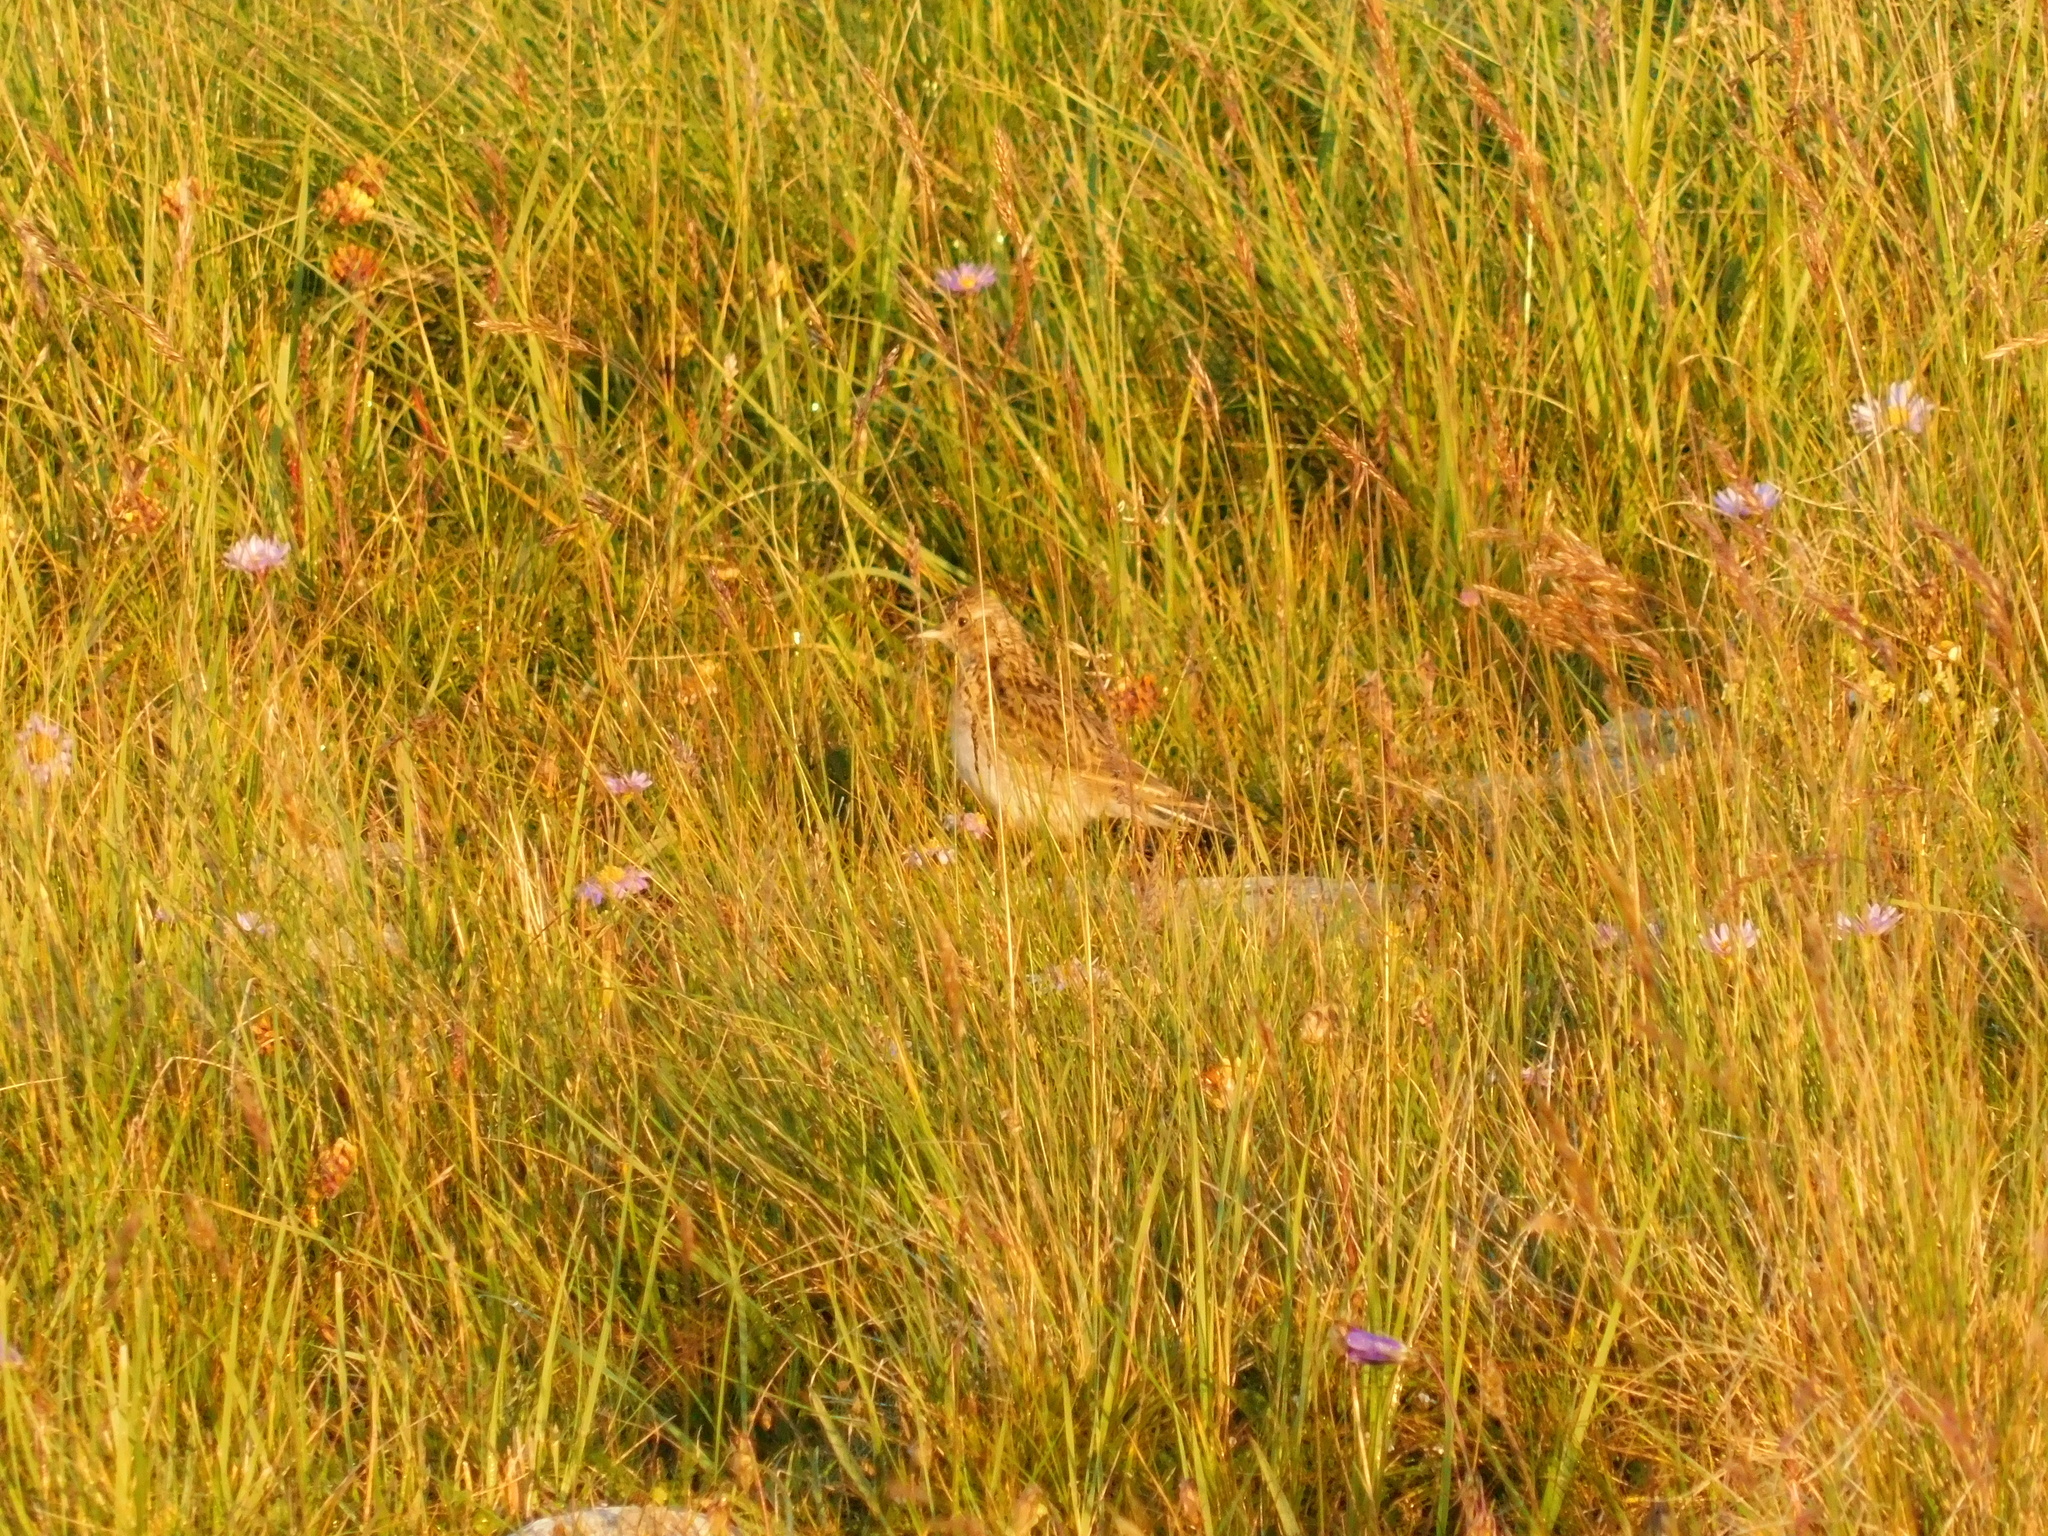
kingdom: Animalia
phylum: Chordata
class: Aves
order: Passeriformes
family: Alaudidae
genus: Alauda
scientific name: Alauda arvensis
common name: Eurasian skylark
